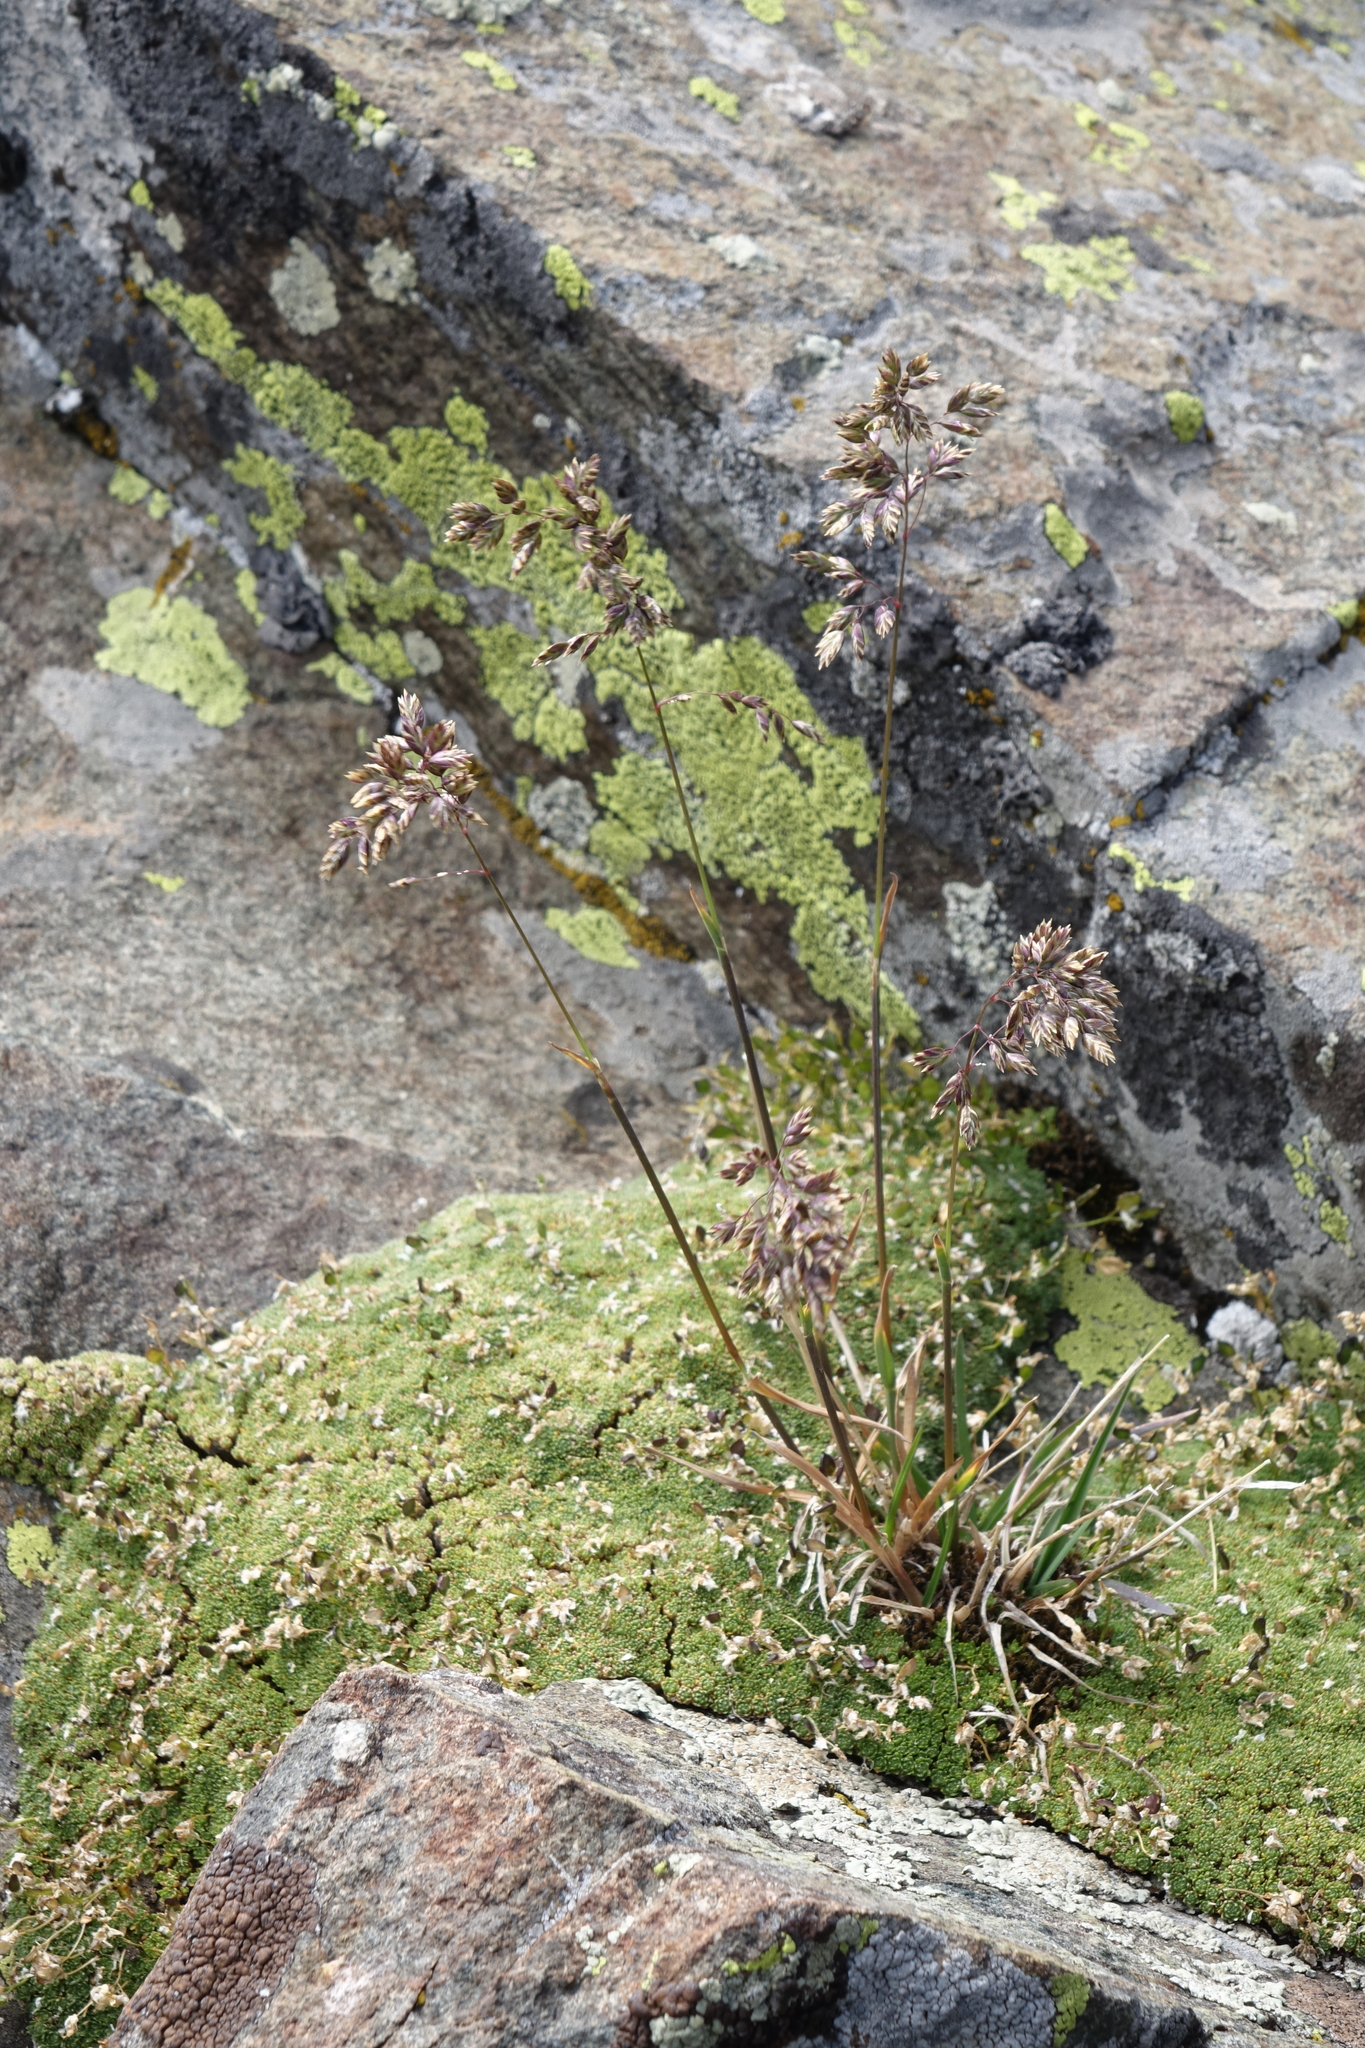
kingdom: Plantae
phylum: Tracheophyta
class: Magnoliopsida
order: Brassicales
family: Brassicaceae
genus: Draba
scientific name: Draba rigida
